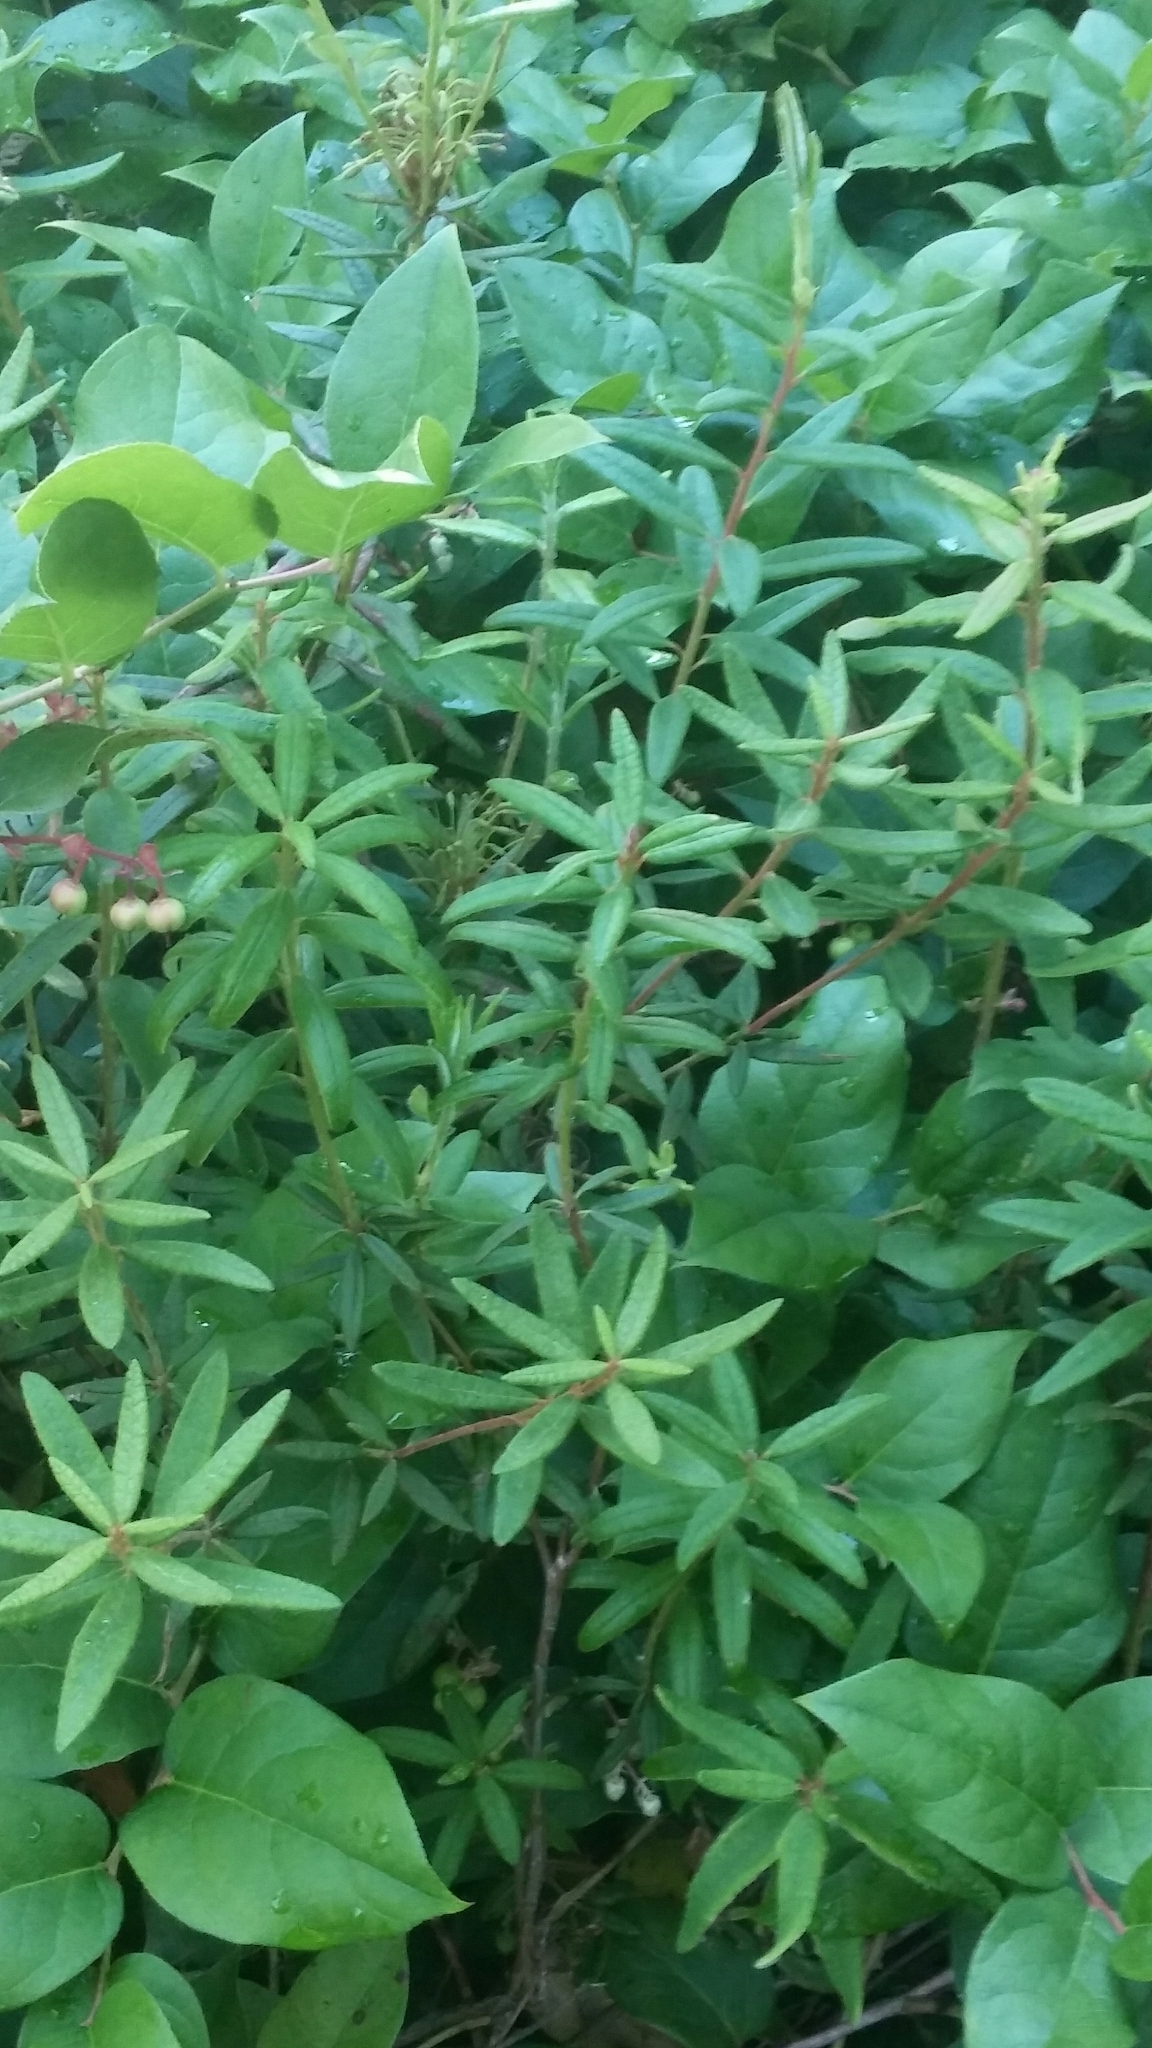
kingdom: Plantae
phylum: Tracheophyta
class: Magnoliopsida
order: Ericales
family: Ericaceae
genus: Rhododendron
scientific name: Rhododendron groenlandicum
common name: Bog labrador tea
